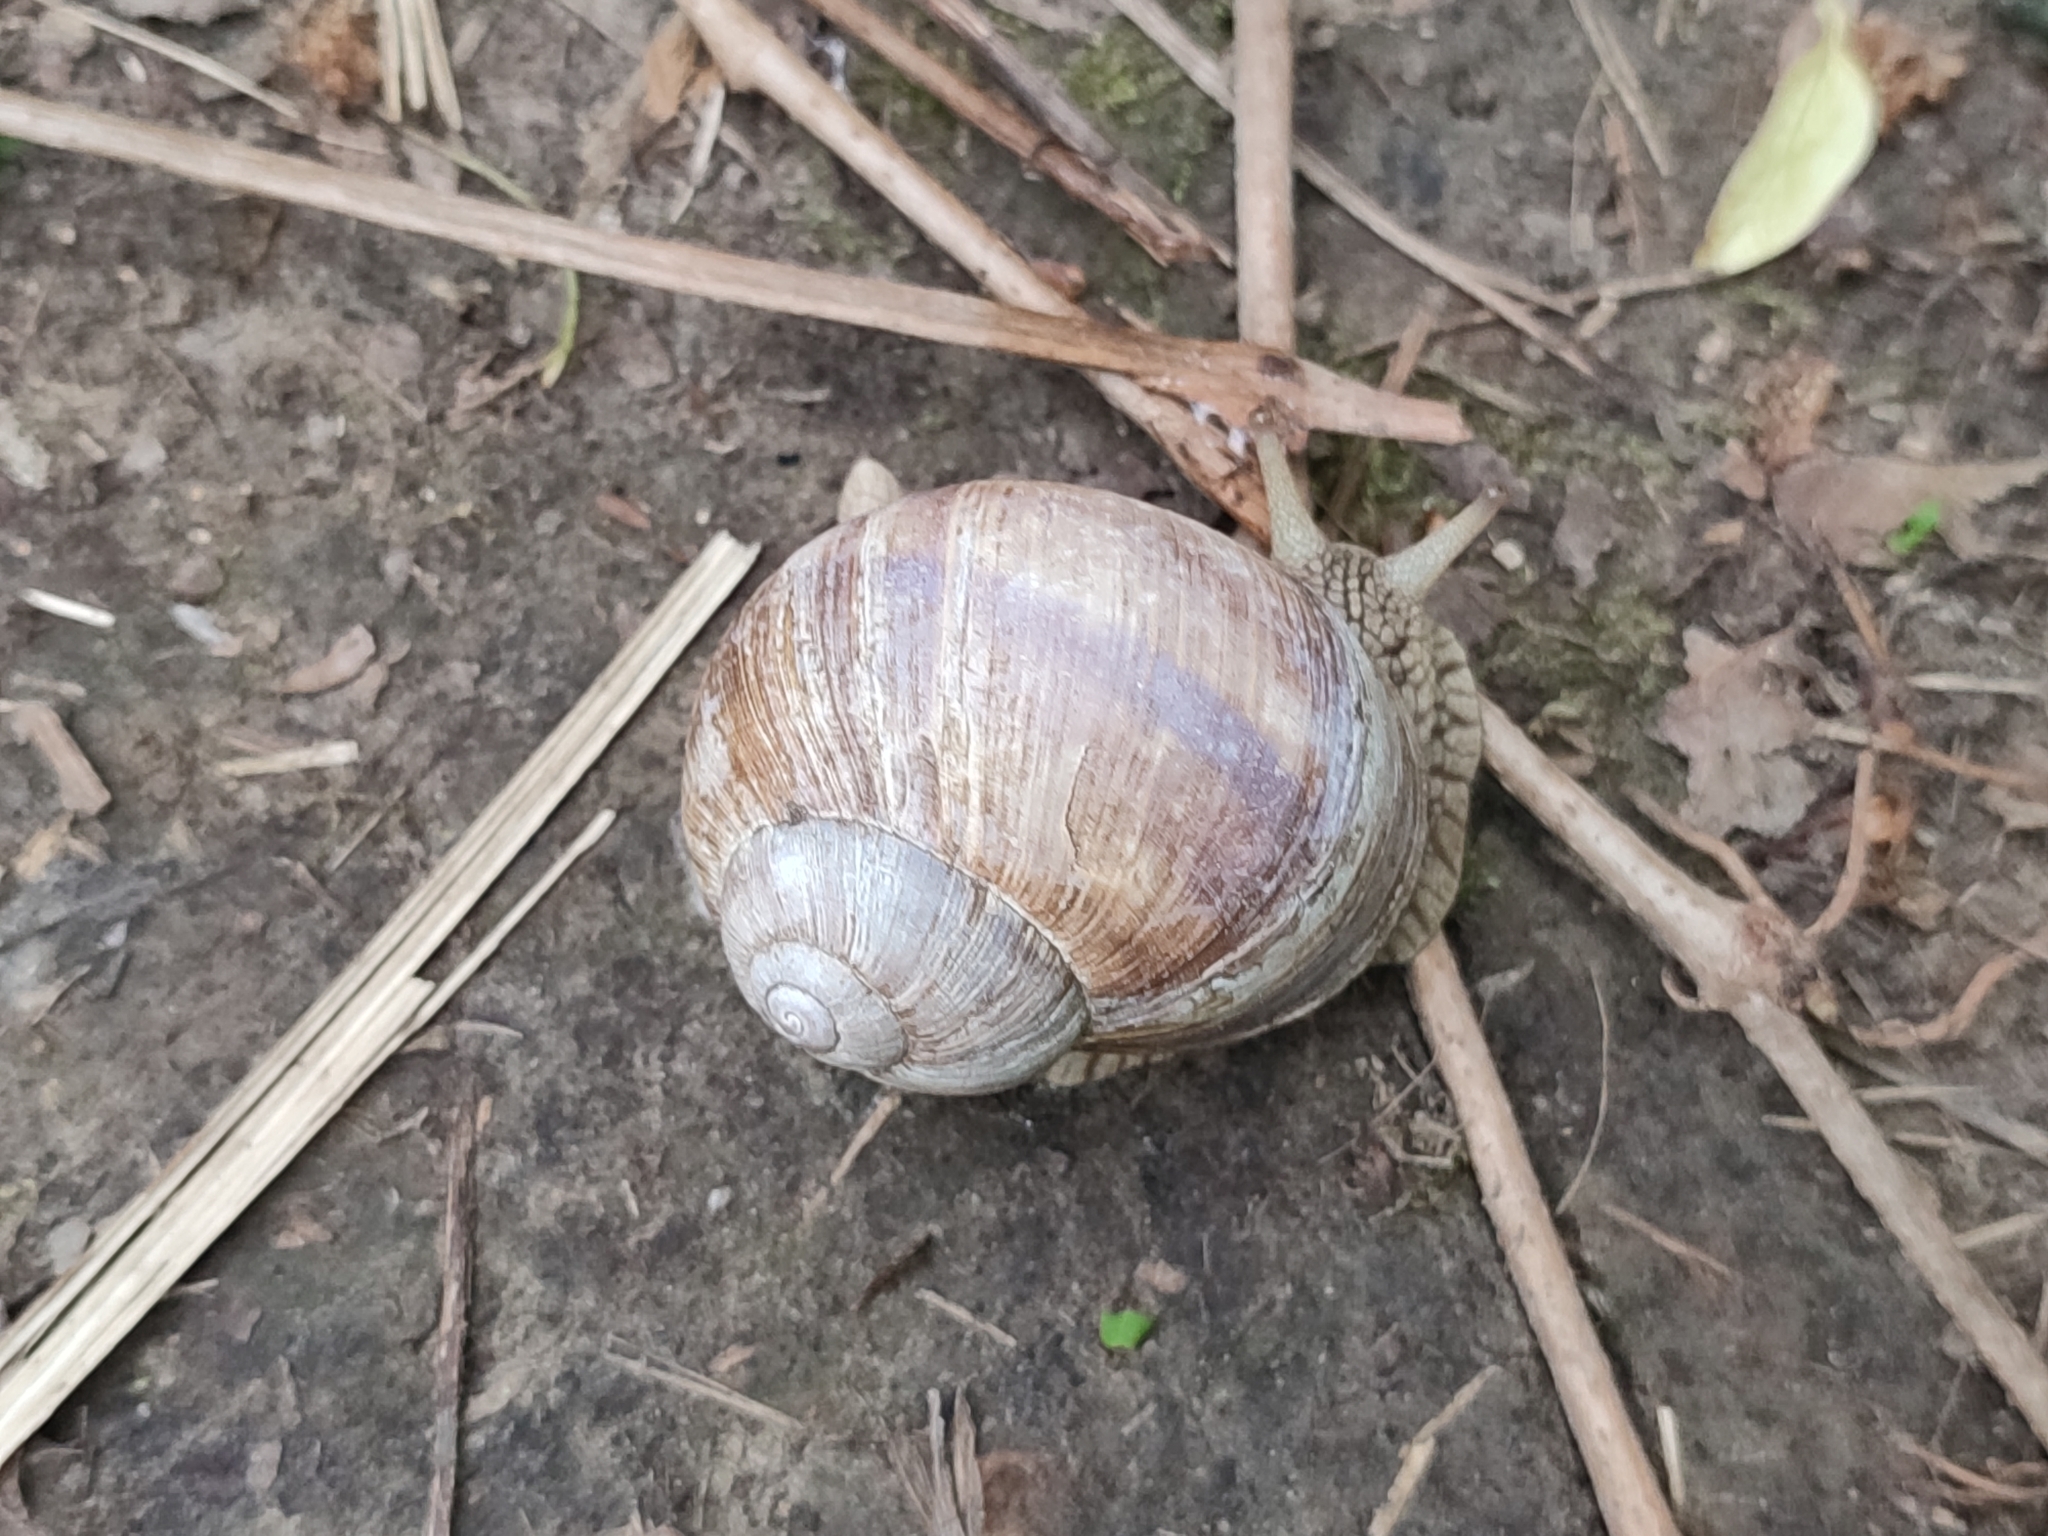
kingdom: Animalia
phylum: Mollusca
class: Gastropoda
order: Stylommatophora
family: Helicidae
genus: Helix
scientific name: Helix pomatia
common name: Roman snail
